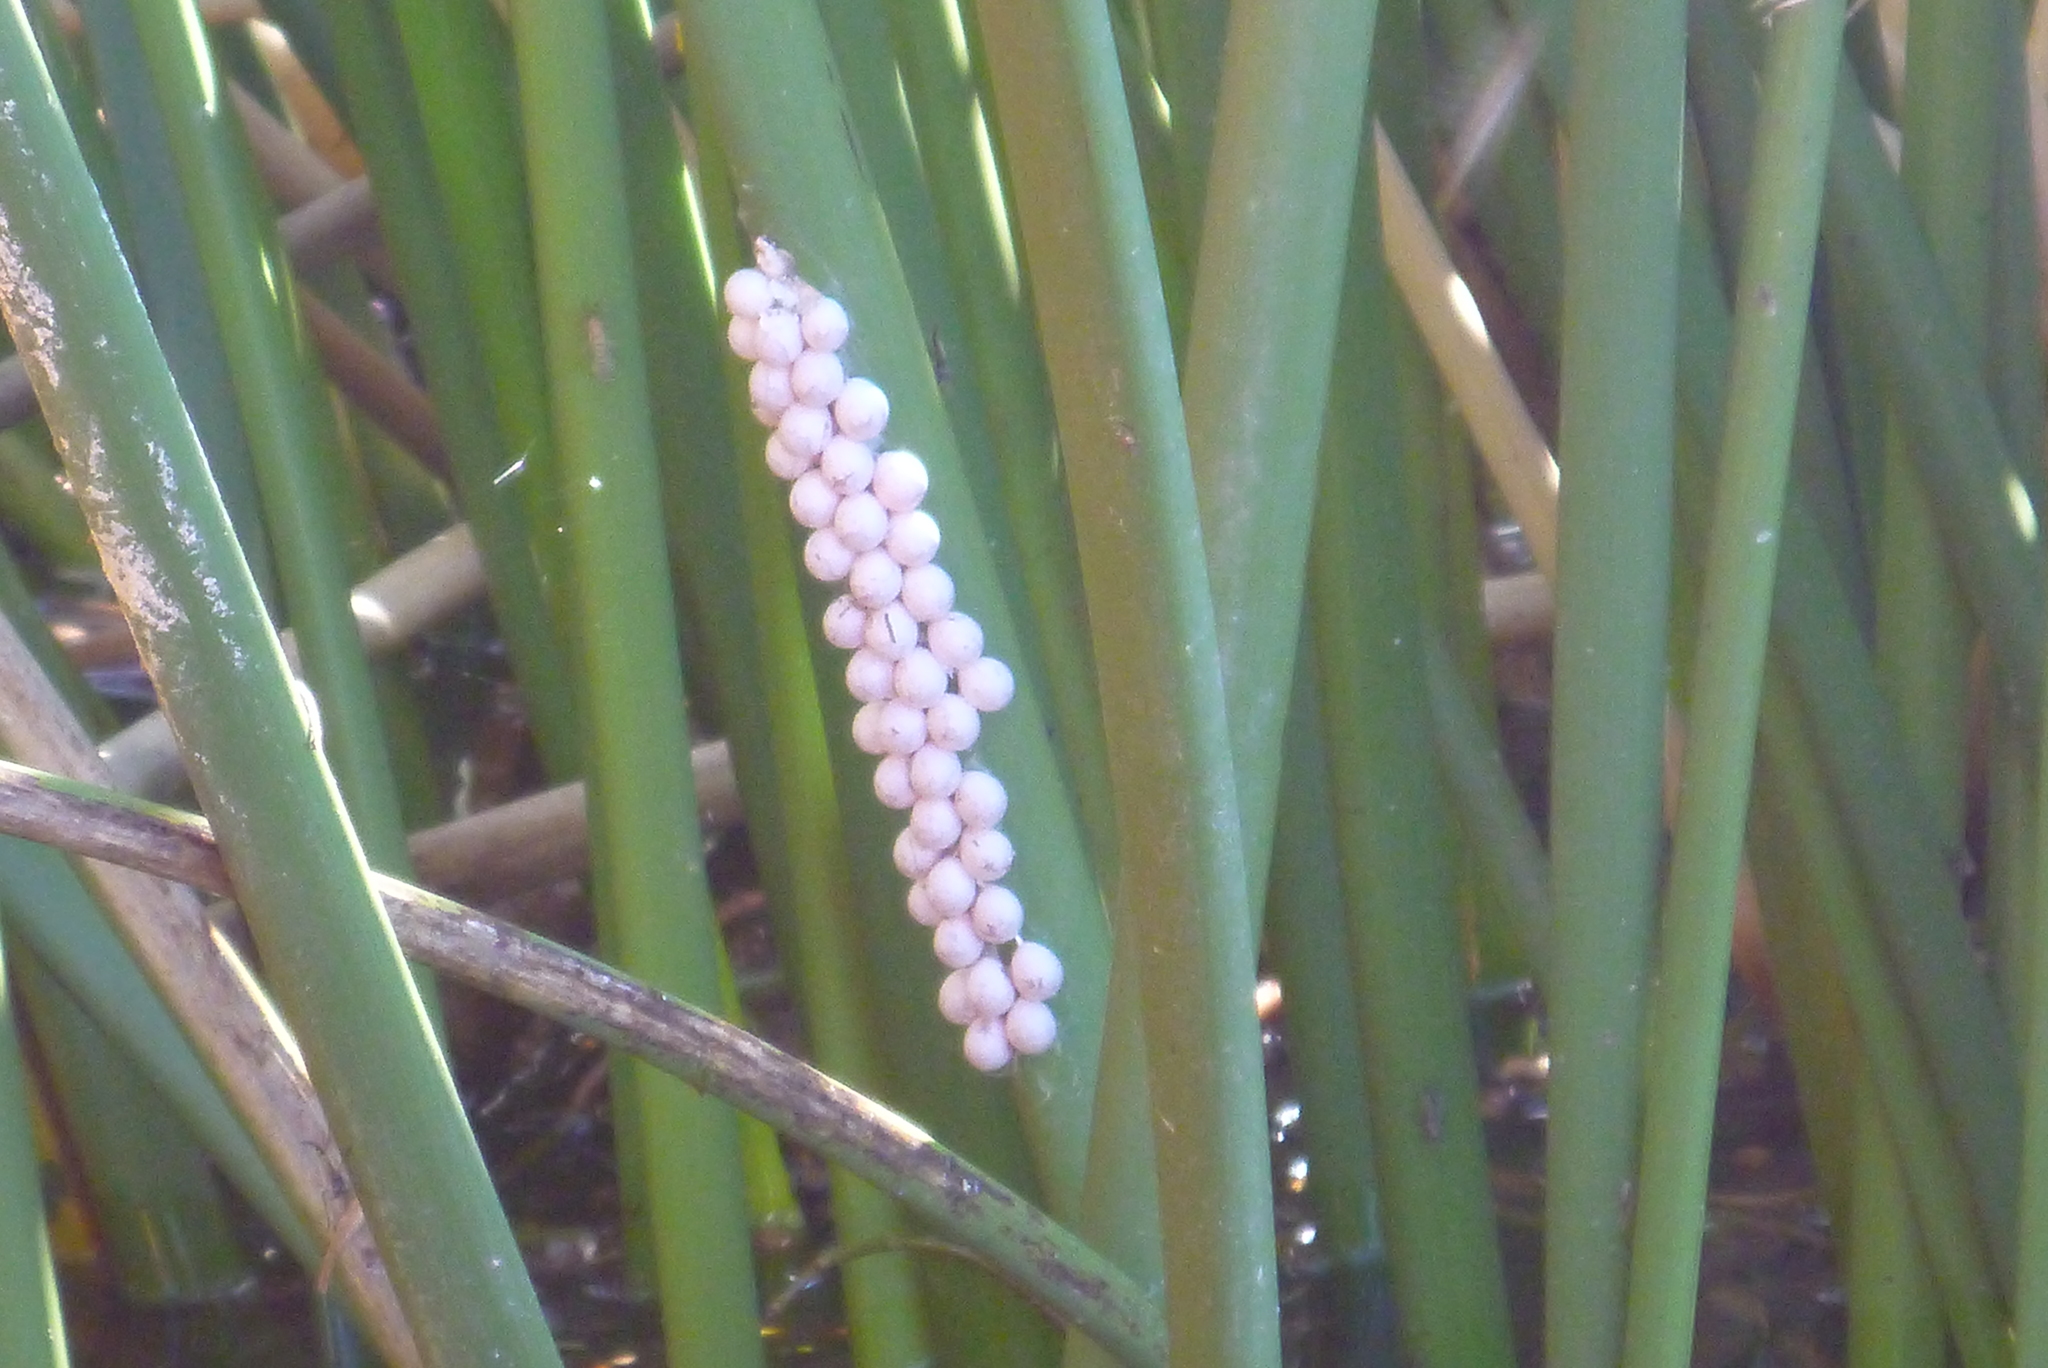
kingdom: Animalia
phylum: Mollusca
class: Gastropoda
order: Architaenioglossa
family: Ampullariidae
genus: Pomacea
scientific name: Pomacea paludosa
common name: Florida applesnail
